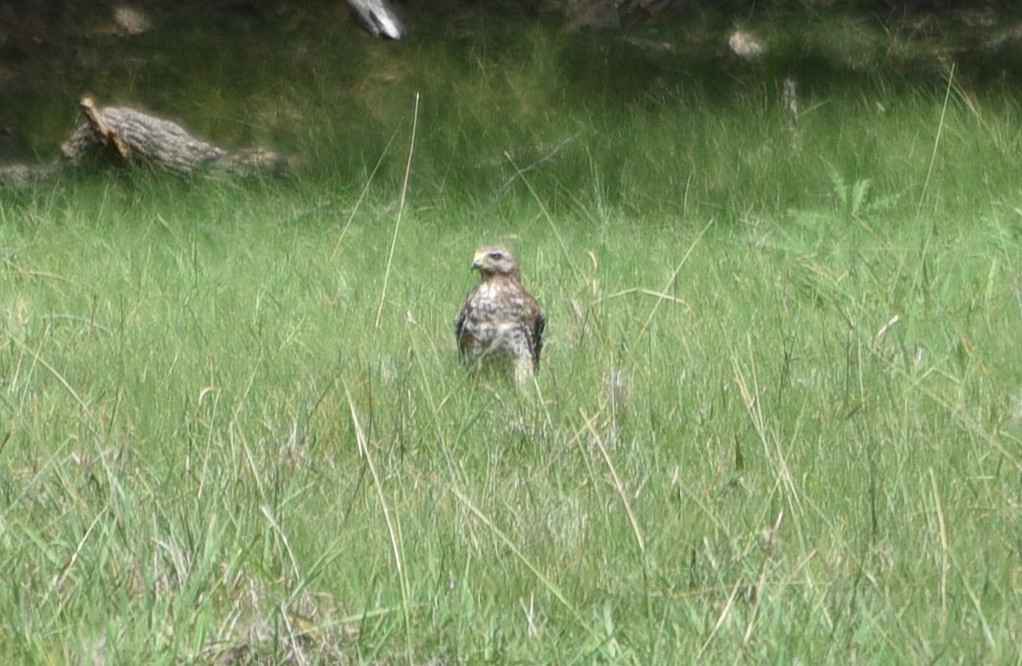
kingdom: Animalia
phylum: Chordata
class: Aves
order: Accipitriformes
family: Accipitridae
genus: Buteo
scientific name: Buteo lineatus
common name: Red-shouldered hawk
